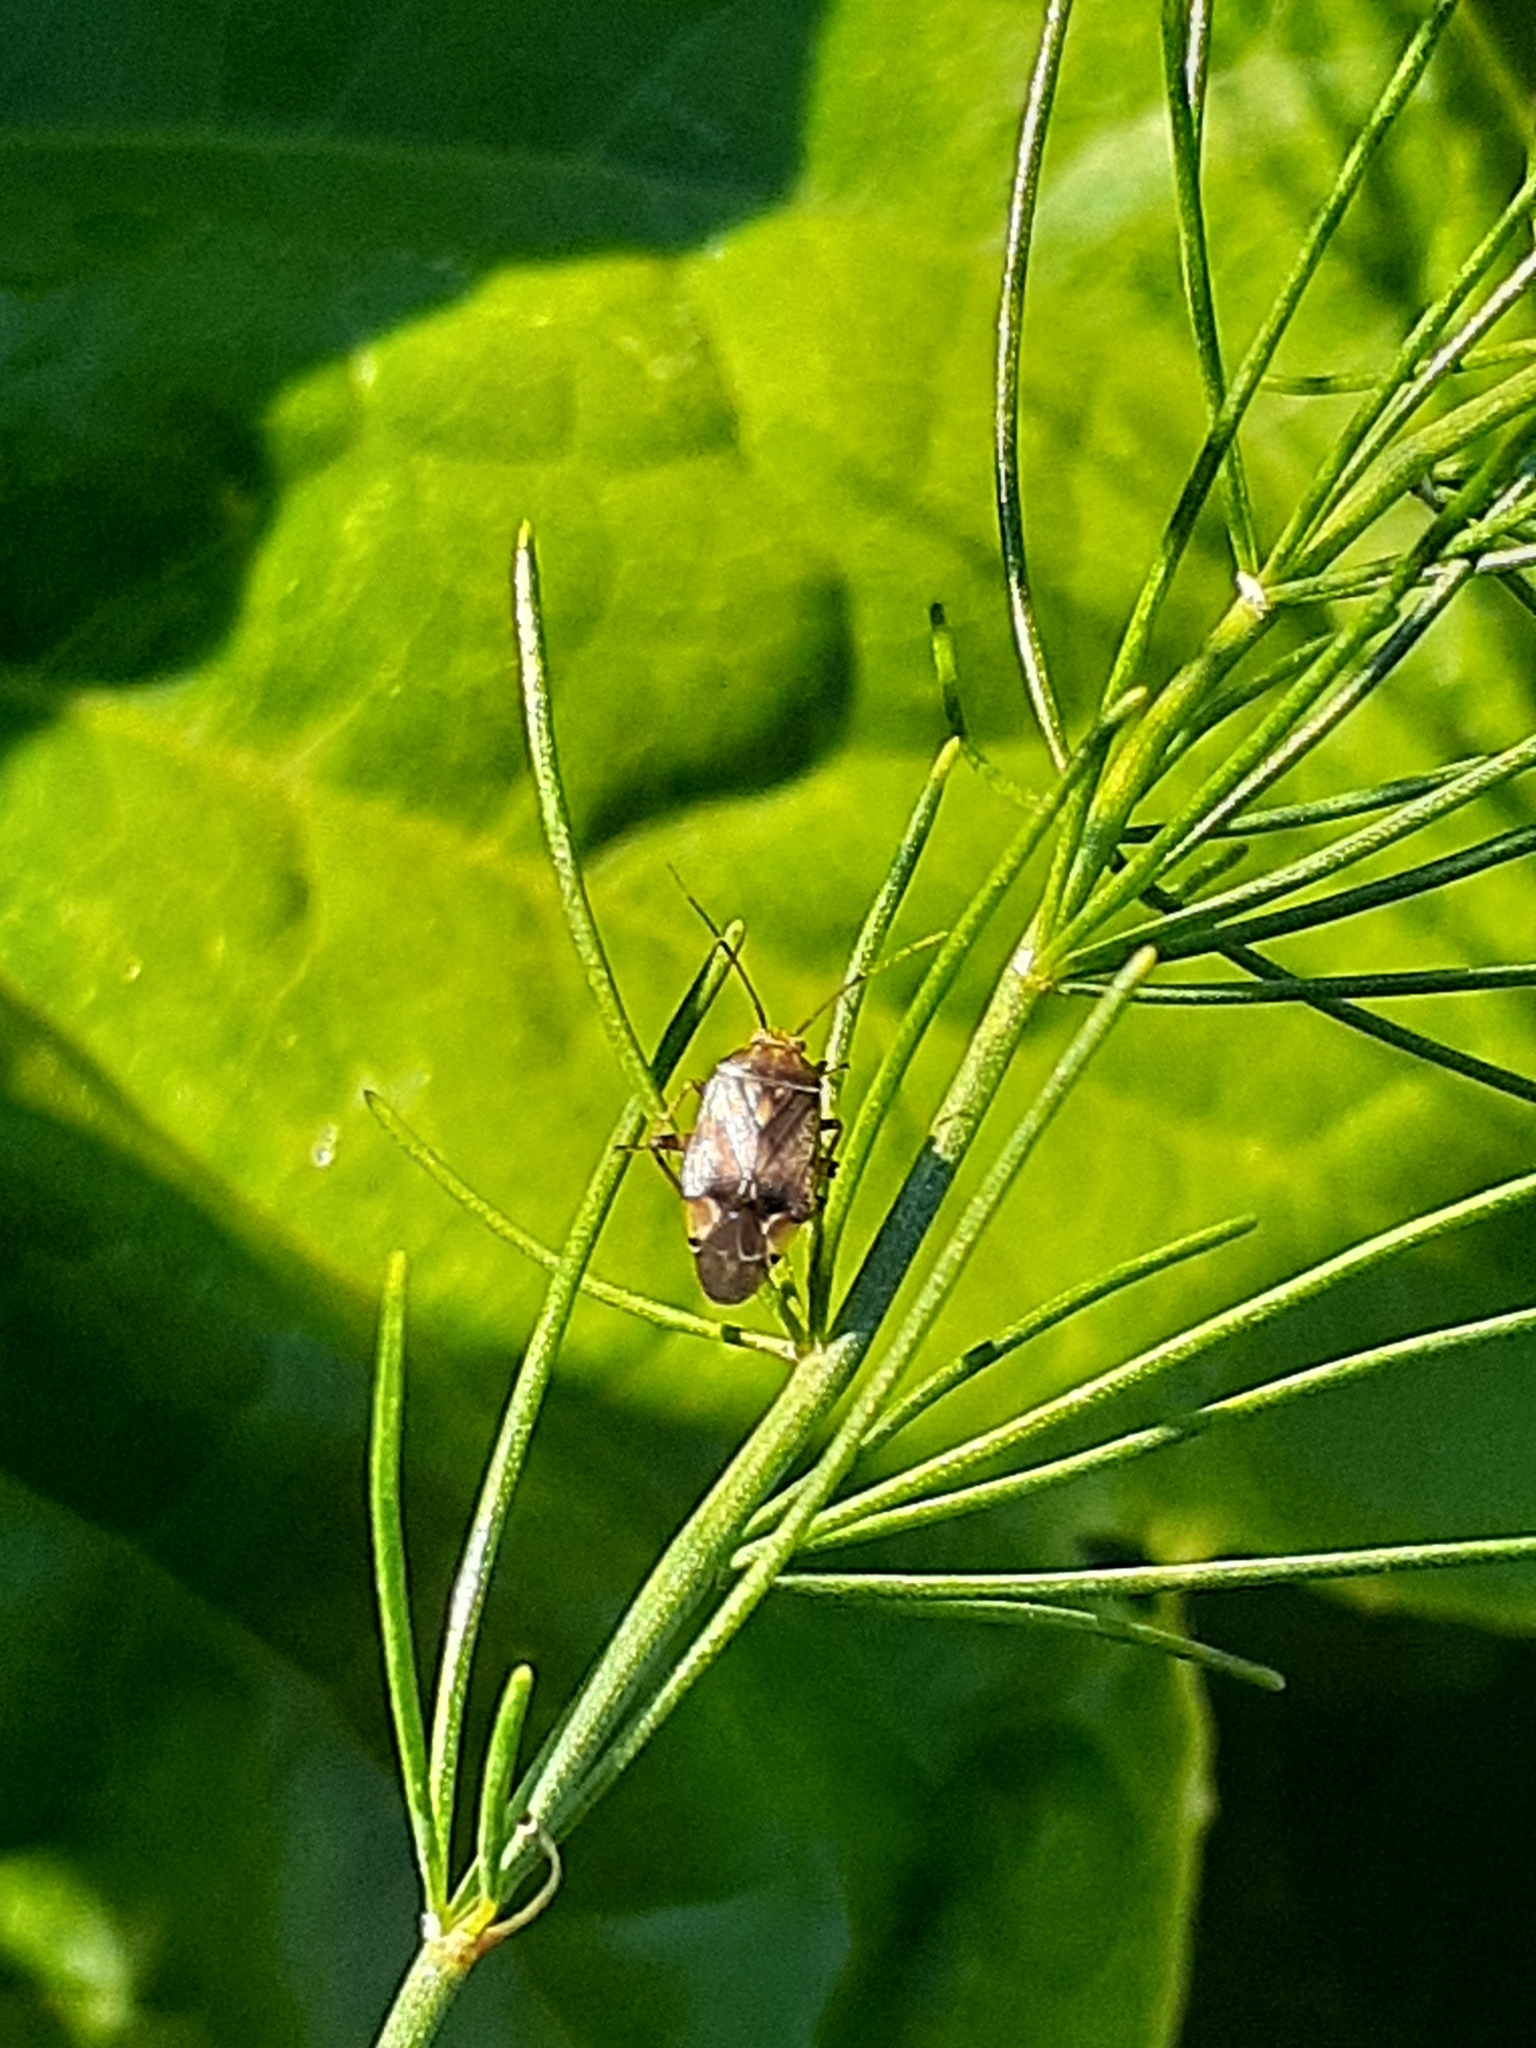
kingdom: Animalia
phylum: Arthropoda
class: Insecta
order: Hemiptera
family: Miridae
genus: Lygus
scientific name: Lygus lineolaris
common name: North american tarnished plant bug
